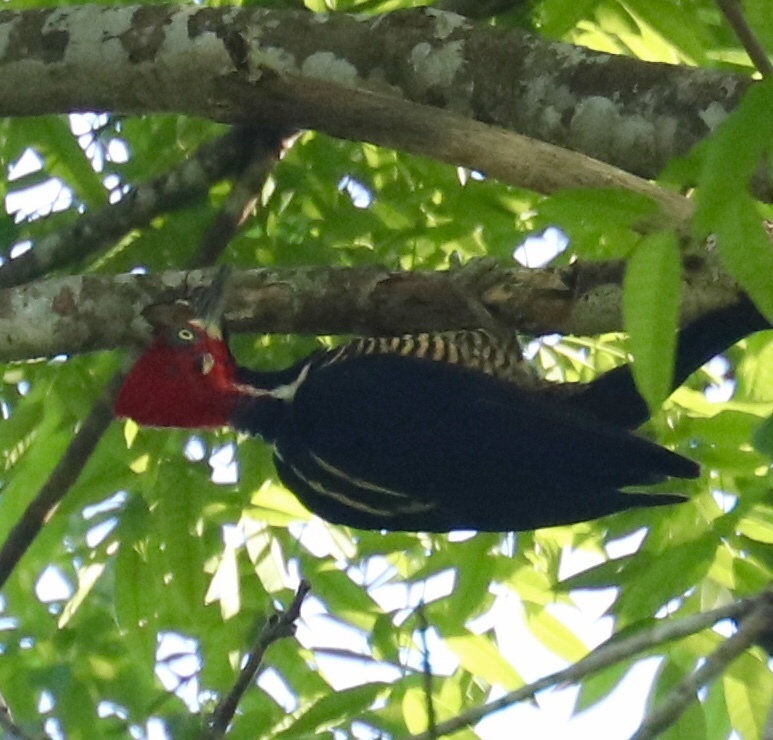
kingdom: Animalia
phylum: Chordata
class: Aves
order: Piciformes
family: Picidae
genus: Campephilus
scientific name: Campephilus melanoleucos
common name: Crimson-crested woodpecker
